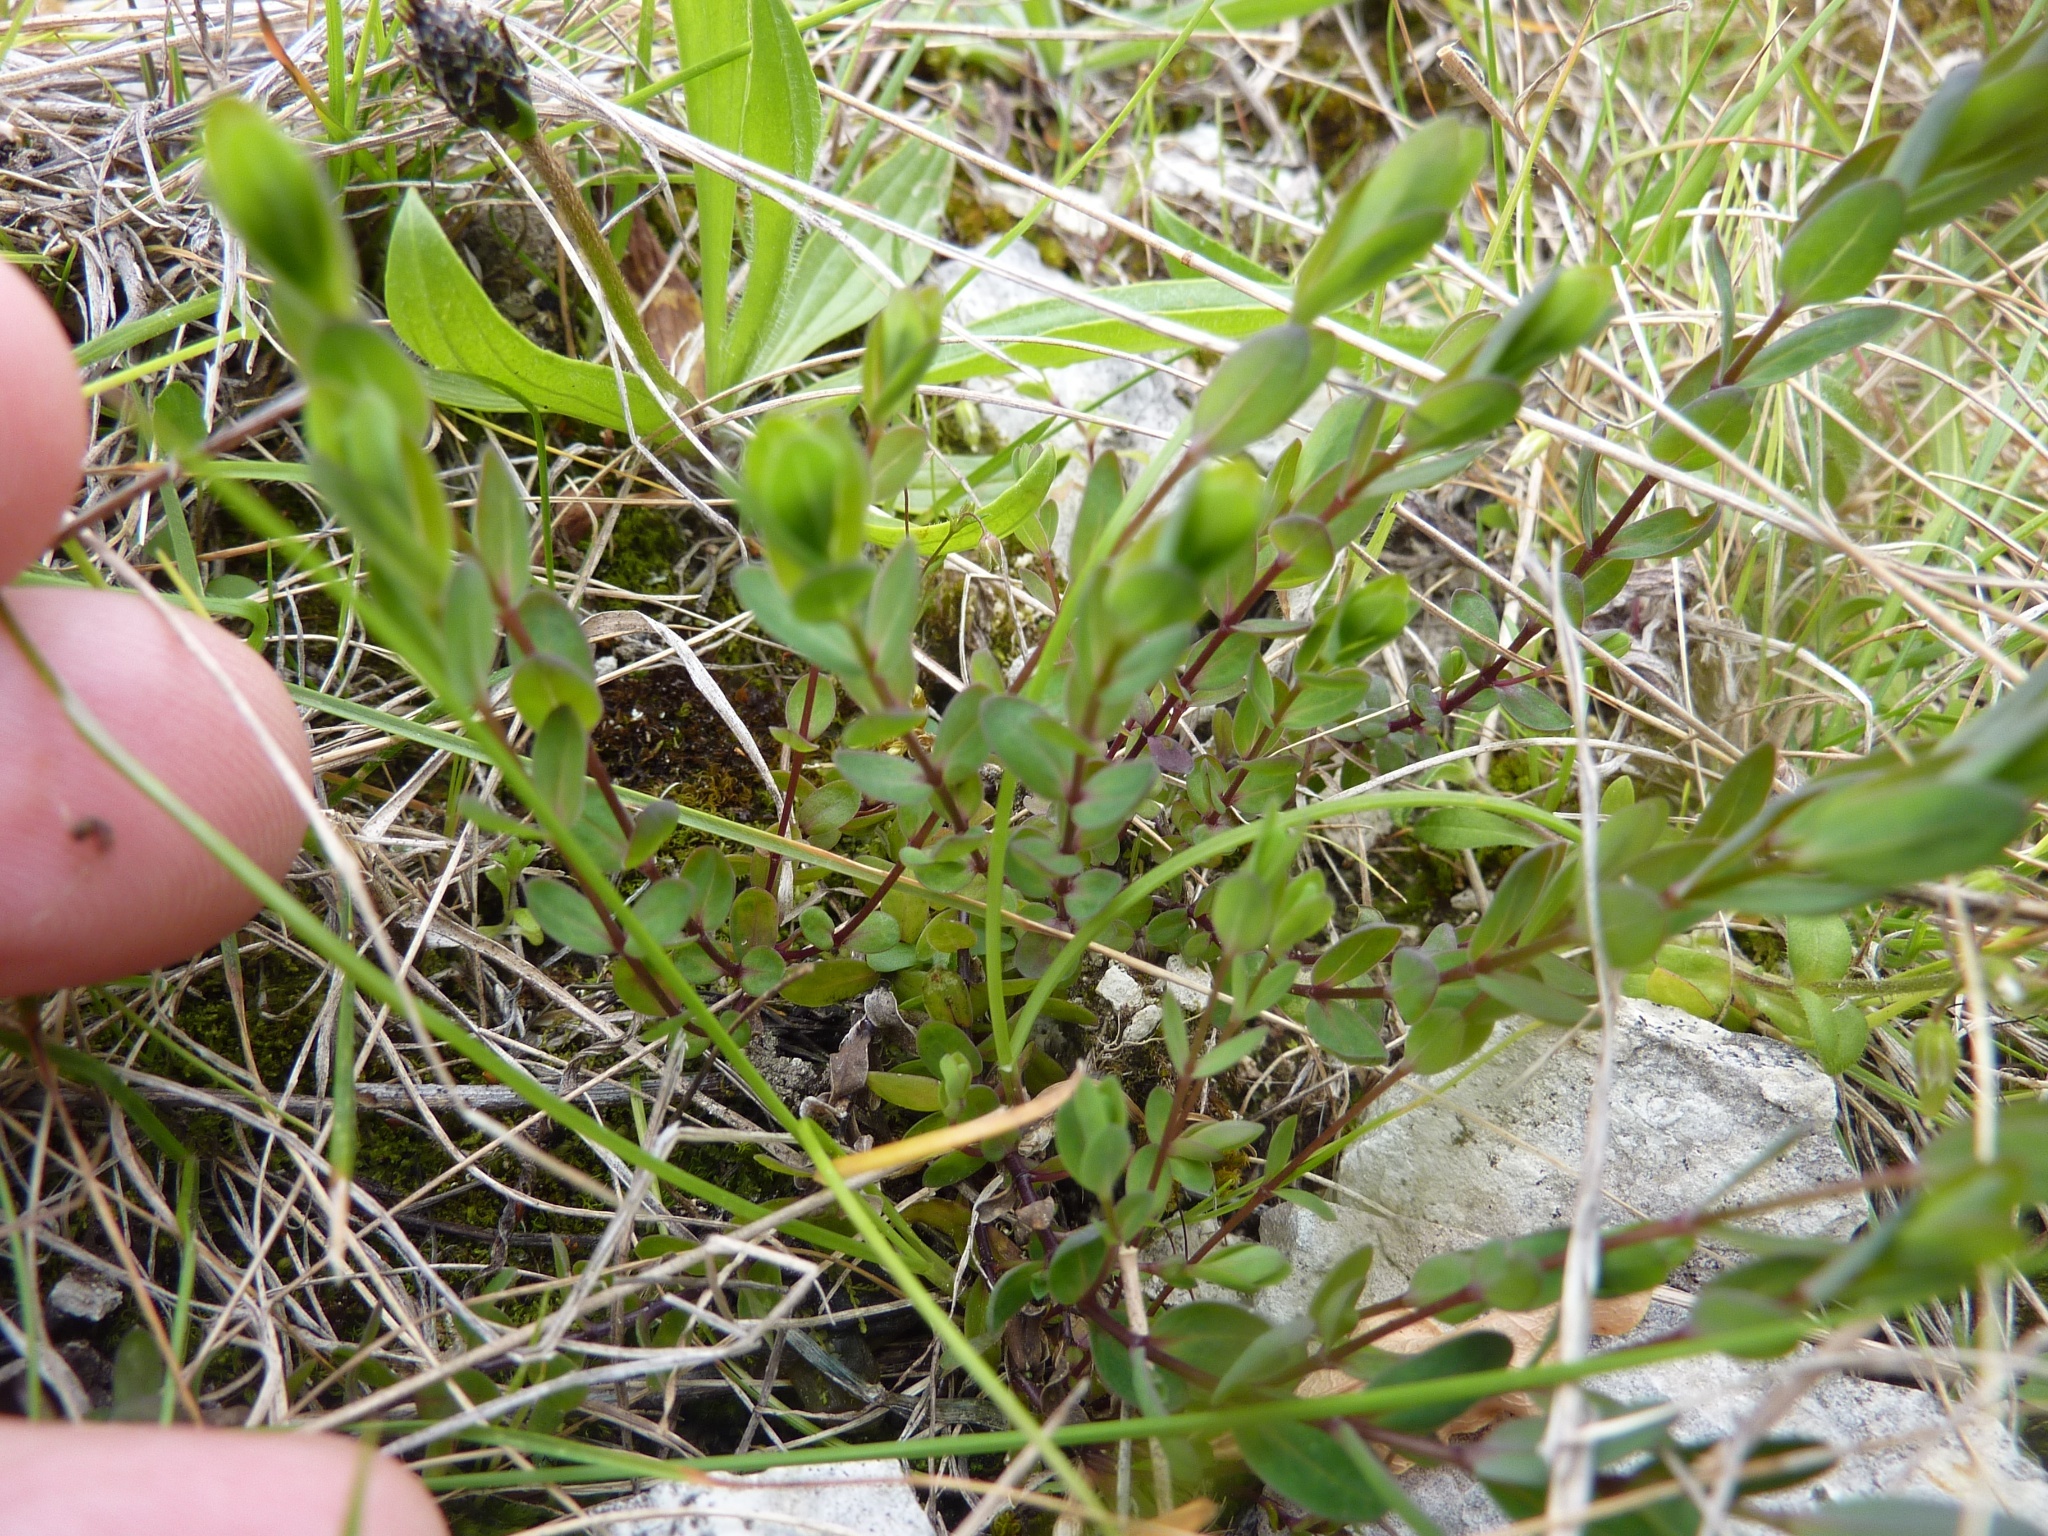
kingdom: Plantae
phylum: Tracheophyta
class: Magnoliopsida
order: Malpighiales
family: Linaceae
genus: Linum
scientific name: Linum catharticum
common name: Fairy flax
